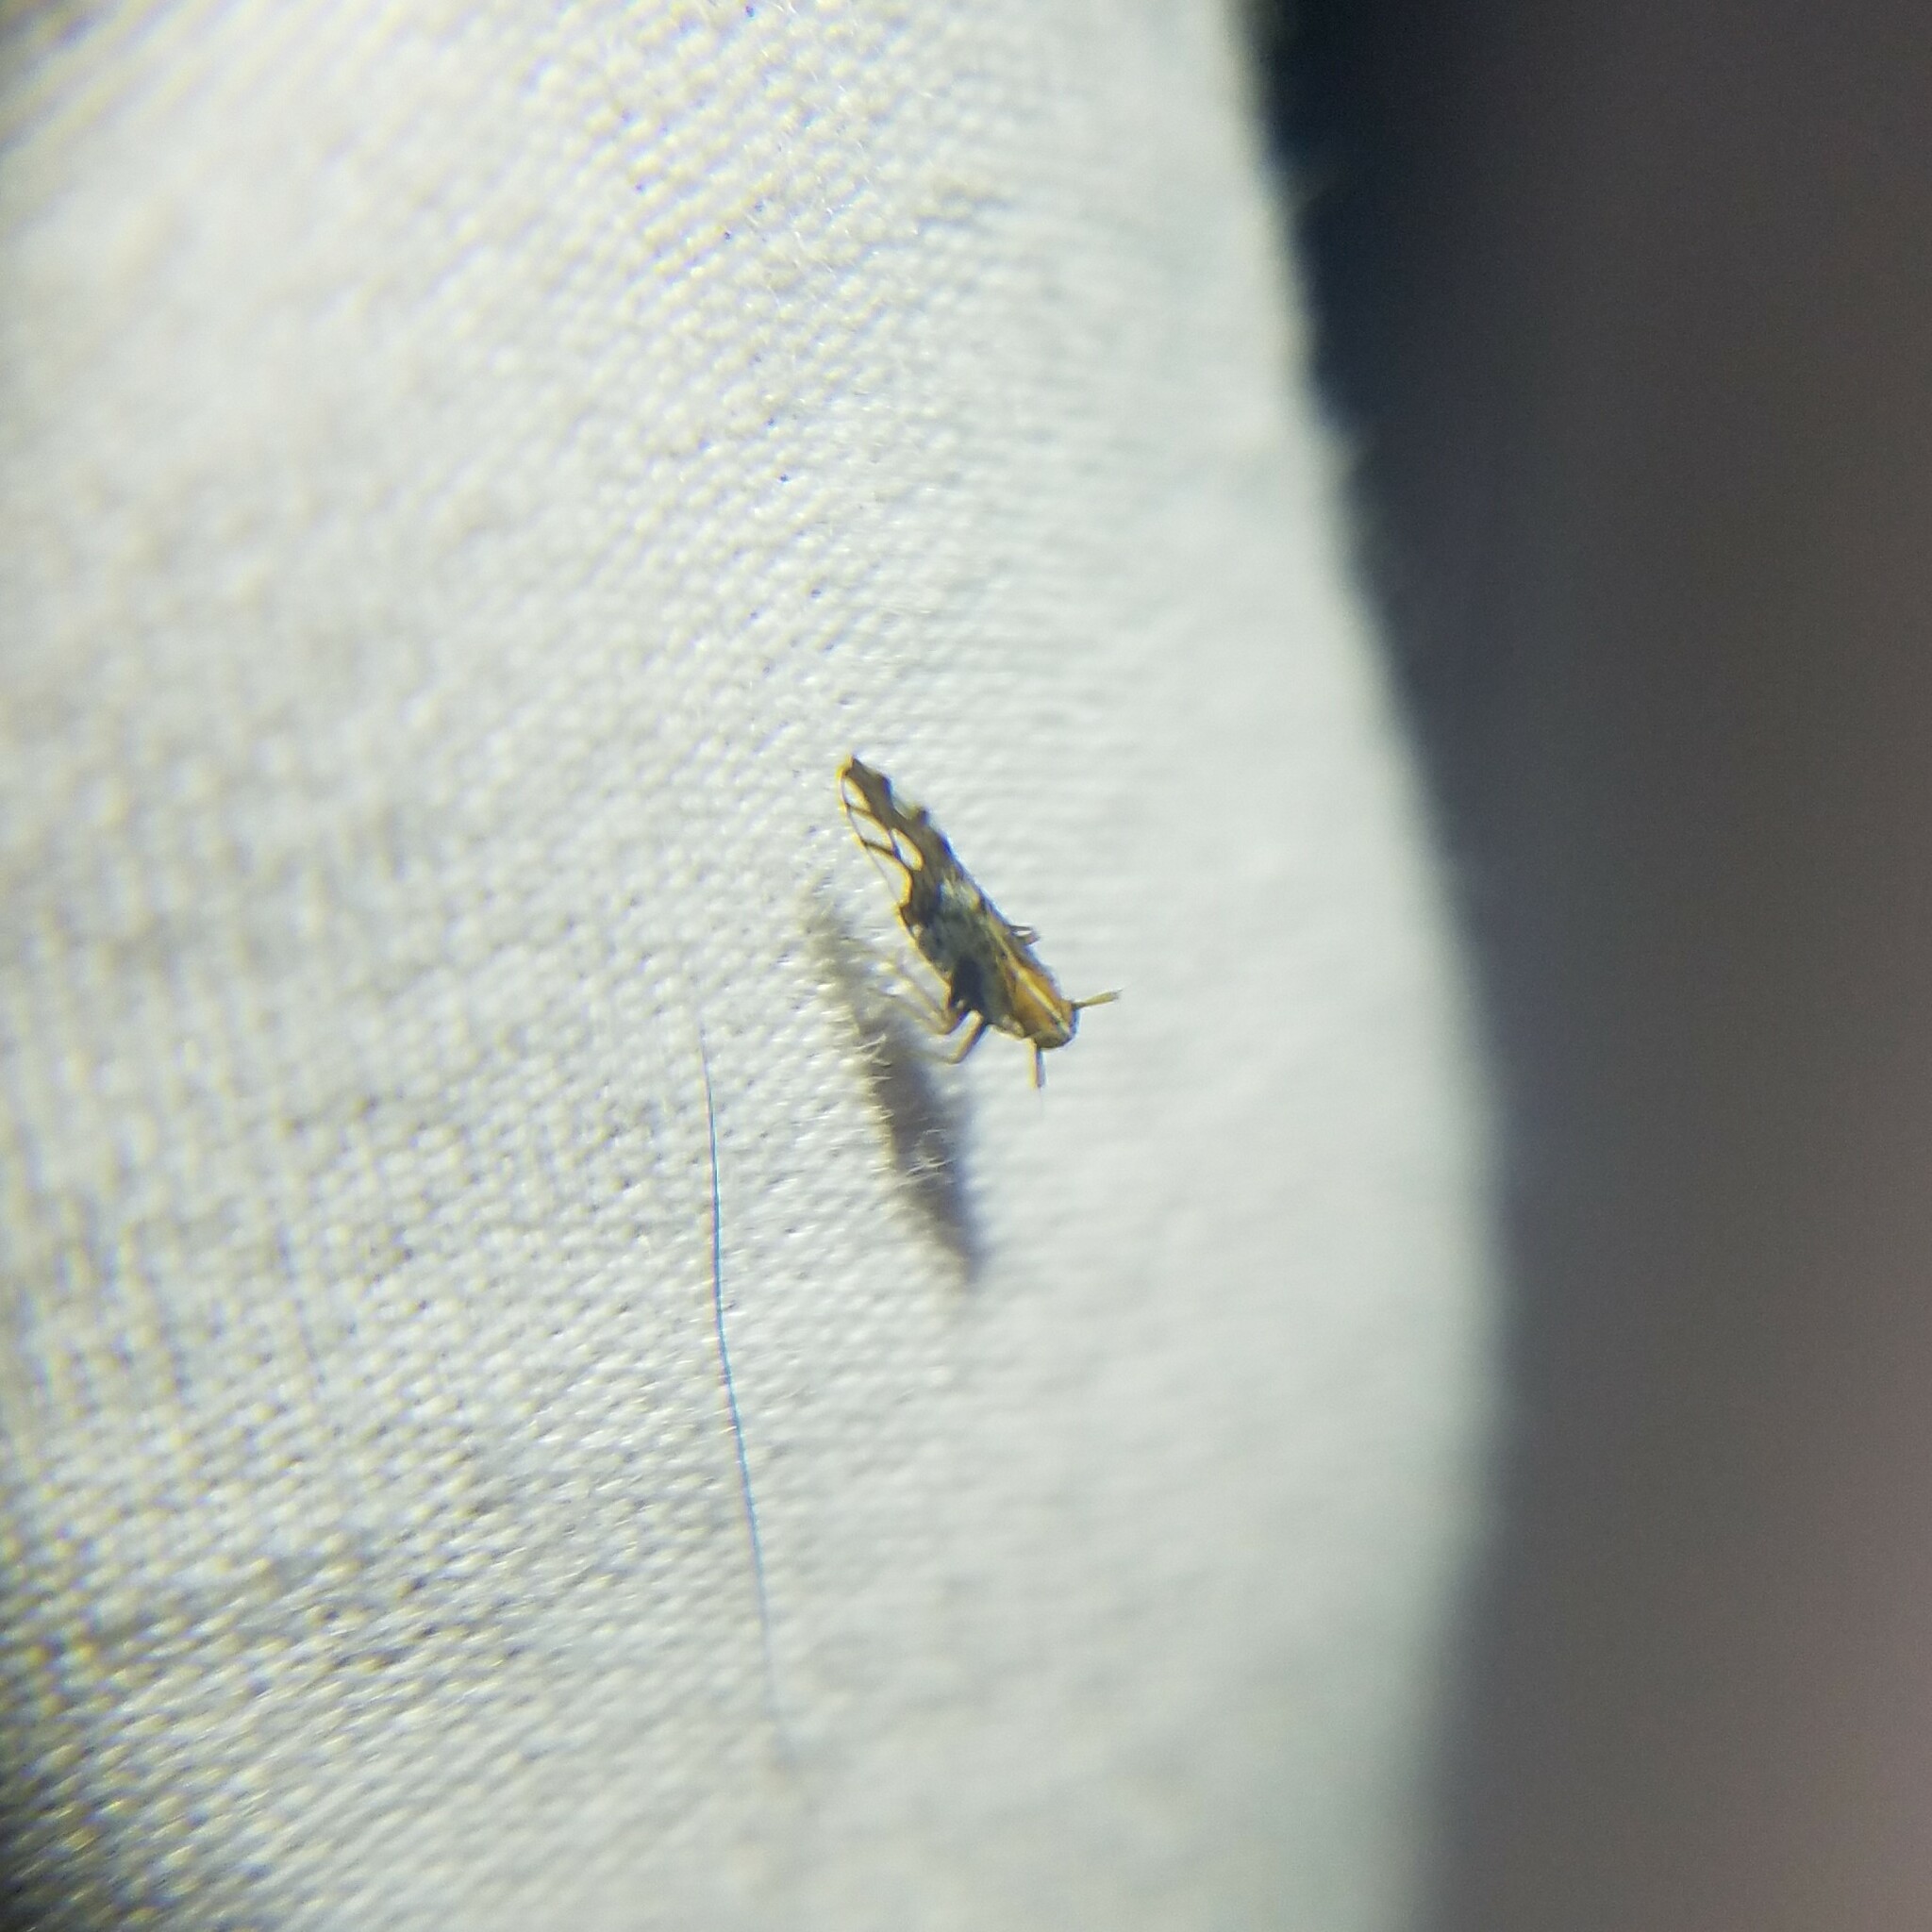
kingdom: Animalia
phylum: Arthropoda
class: Insecta
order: Hemiptera
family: Delphacidae
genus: Liburniella
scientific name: Liburniella ornata
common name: Ornate planthopper
